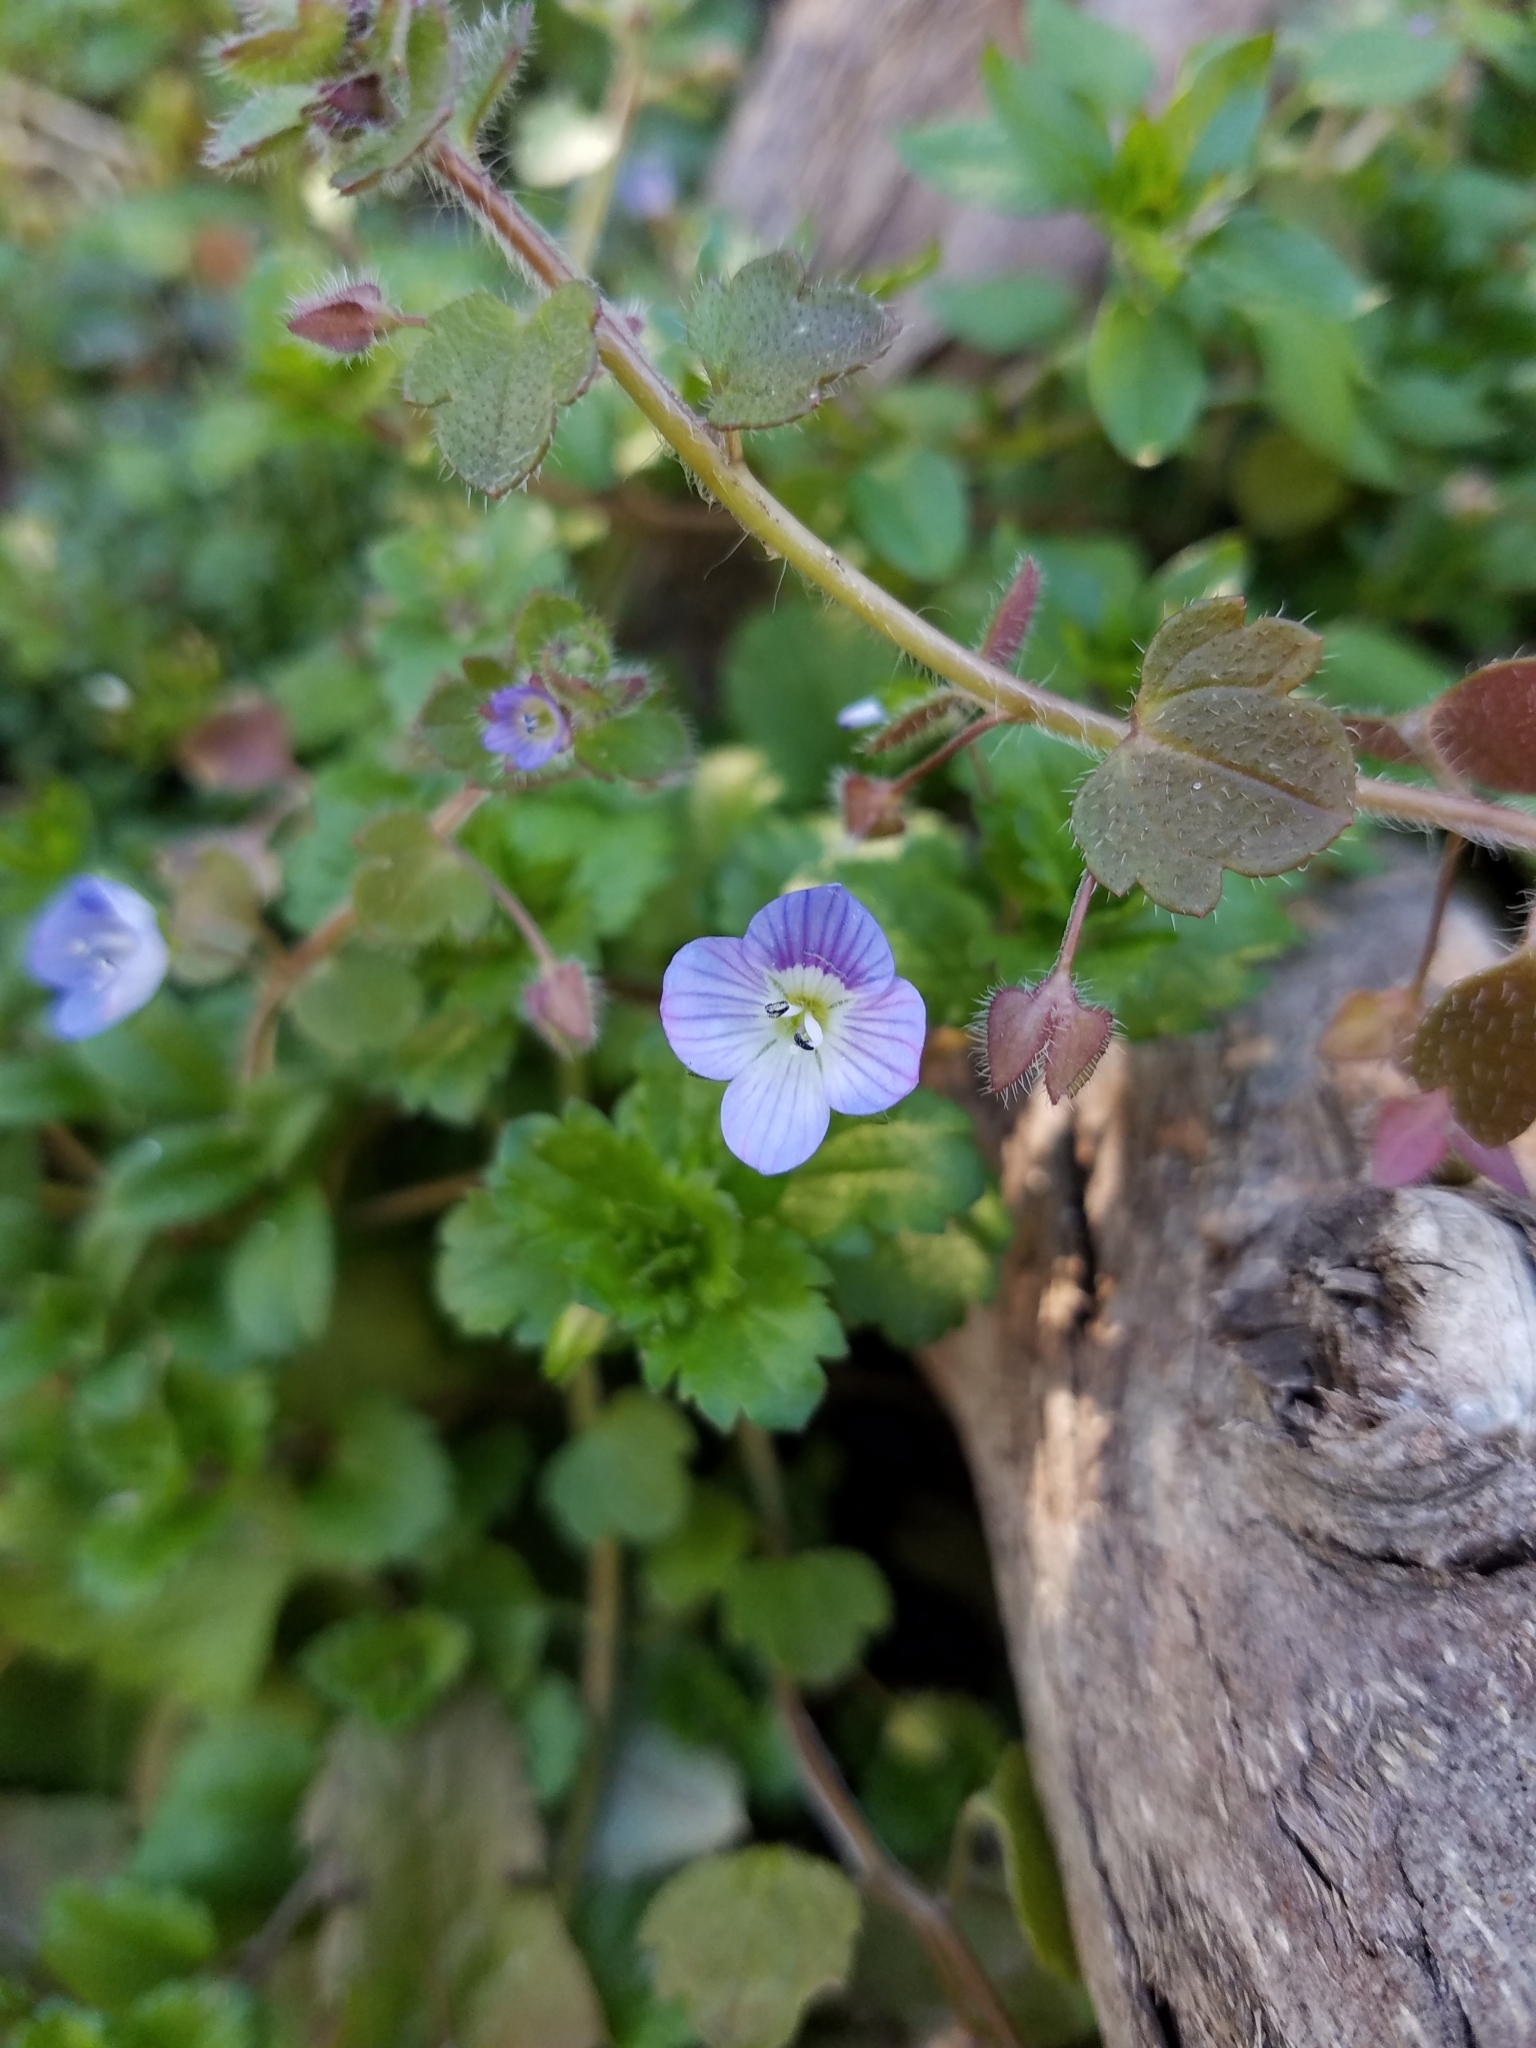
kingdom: Plantae
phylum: Tracheophyta
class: Magnoliopsida
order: Lamiales
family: Plantaginaceae
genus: Veronica
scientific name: Veronica persica
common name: Common field-speedwell
